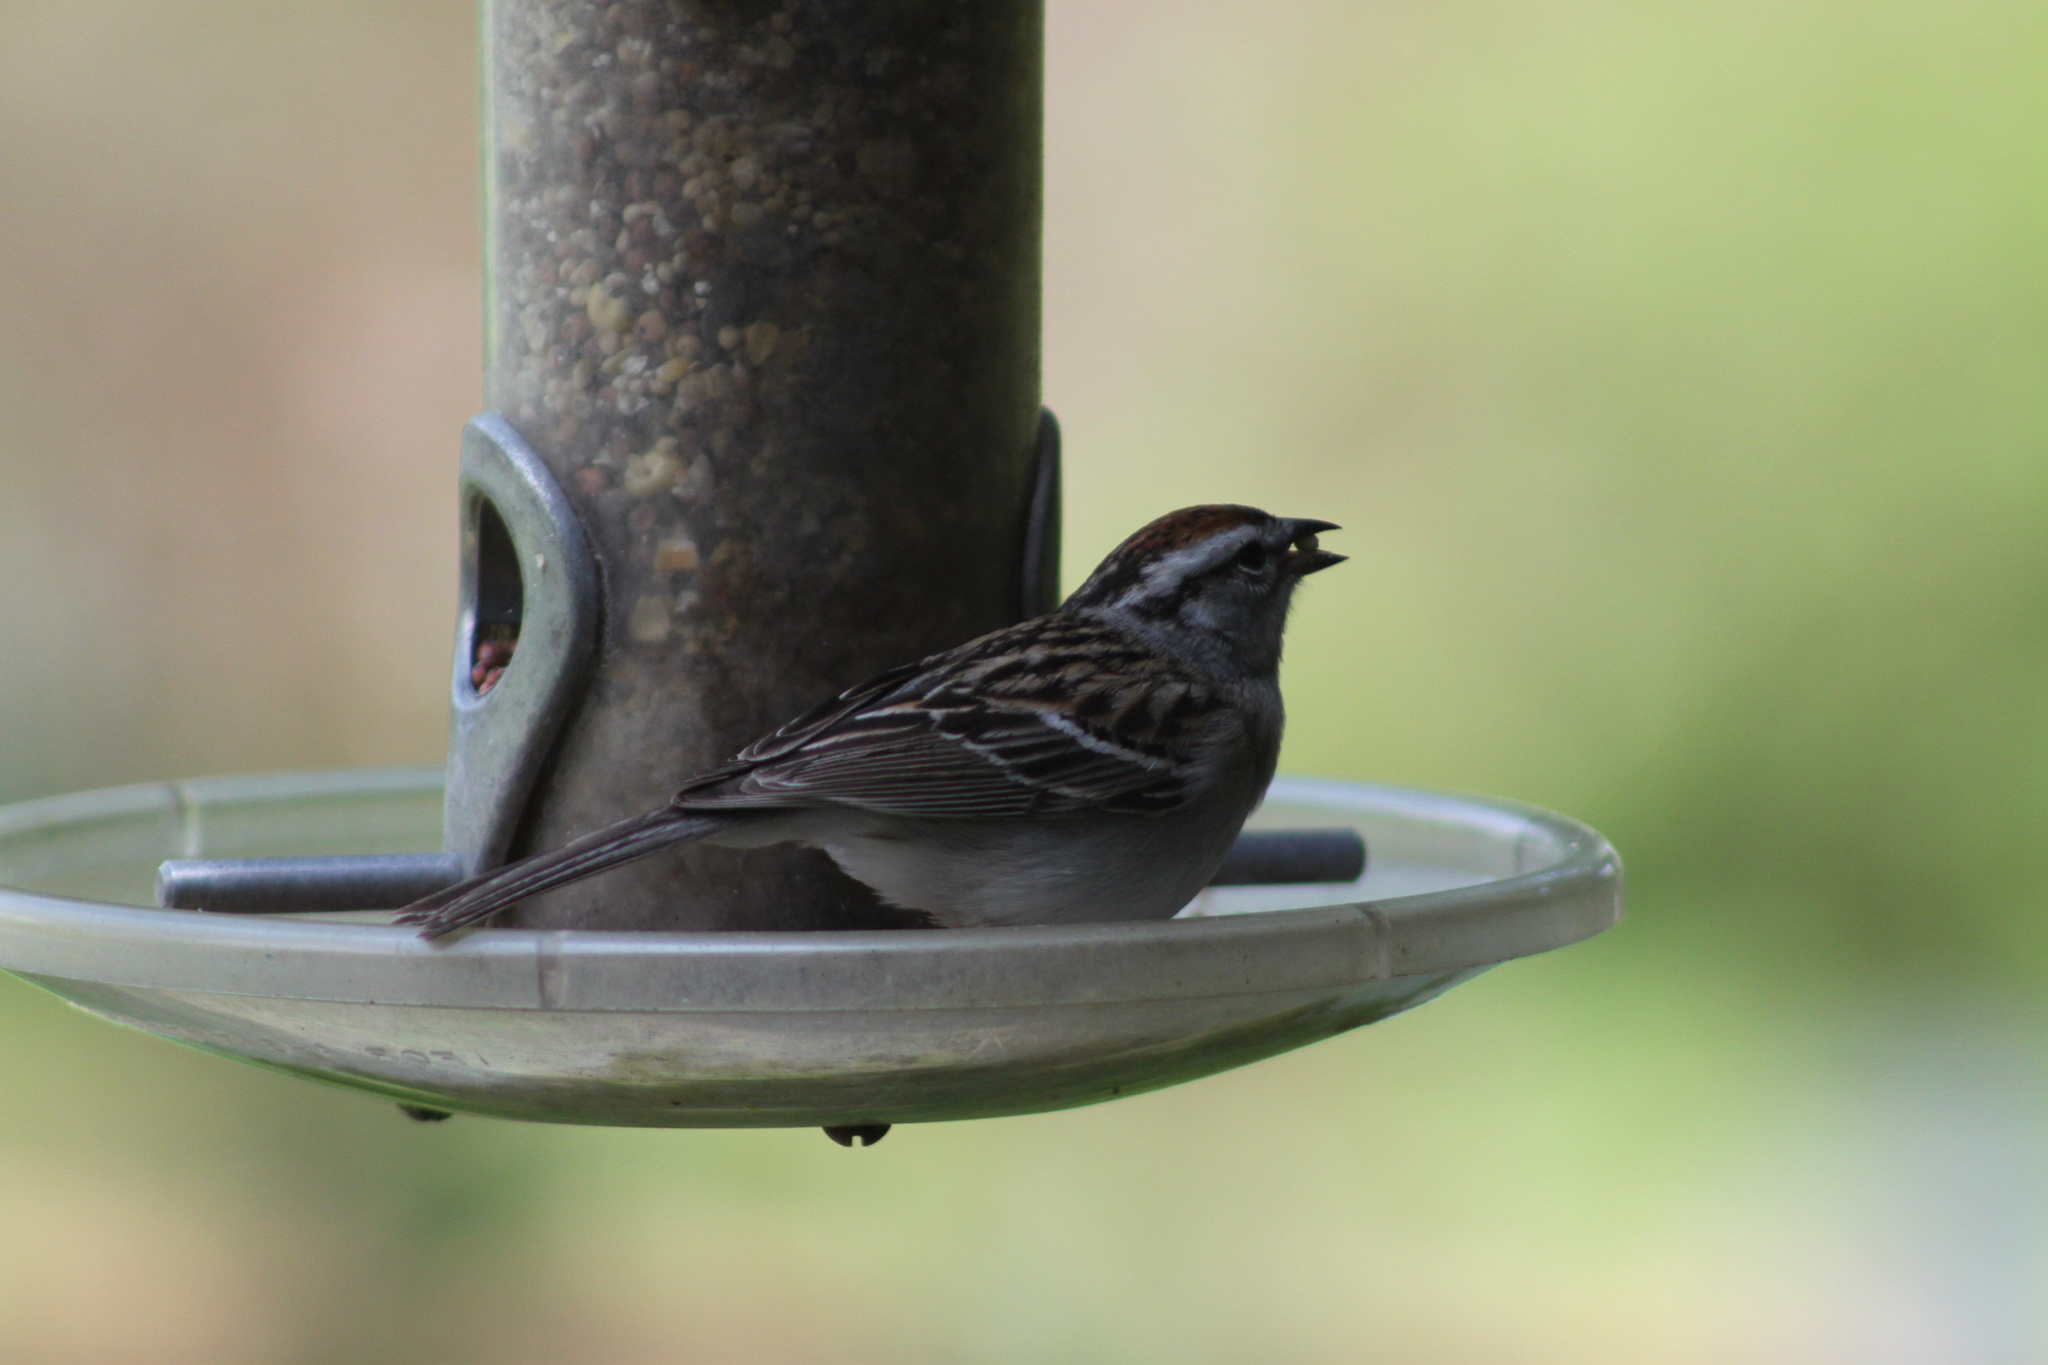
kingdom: Animalia
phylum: Chordata
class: Aves
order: Passeriformes
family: Passerellidae
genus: Spizella
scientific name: Spizella passerina
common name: Chipping sparrow
